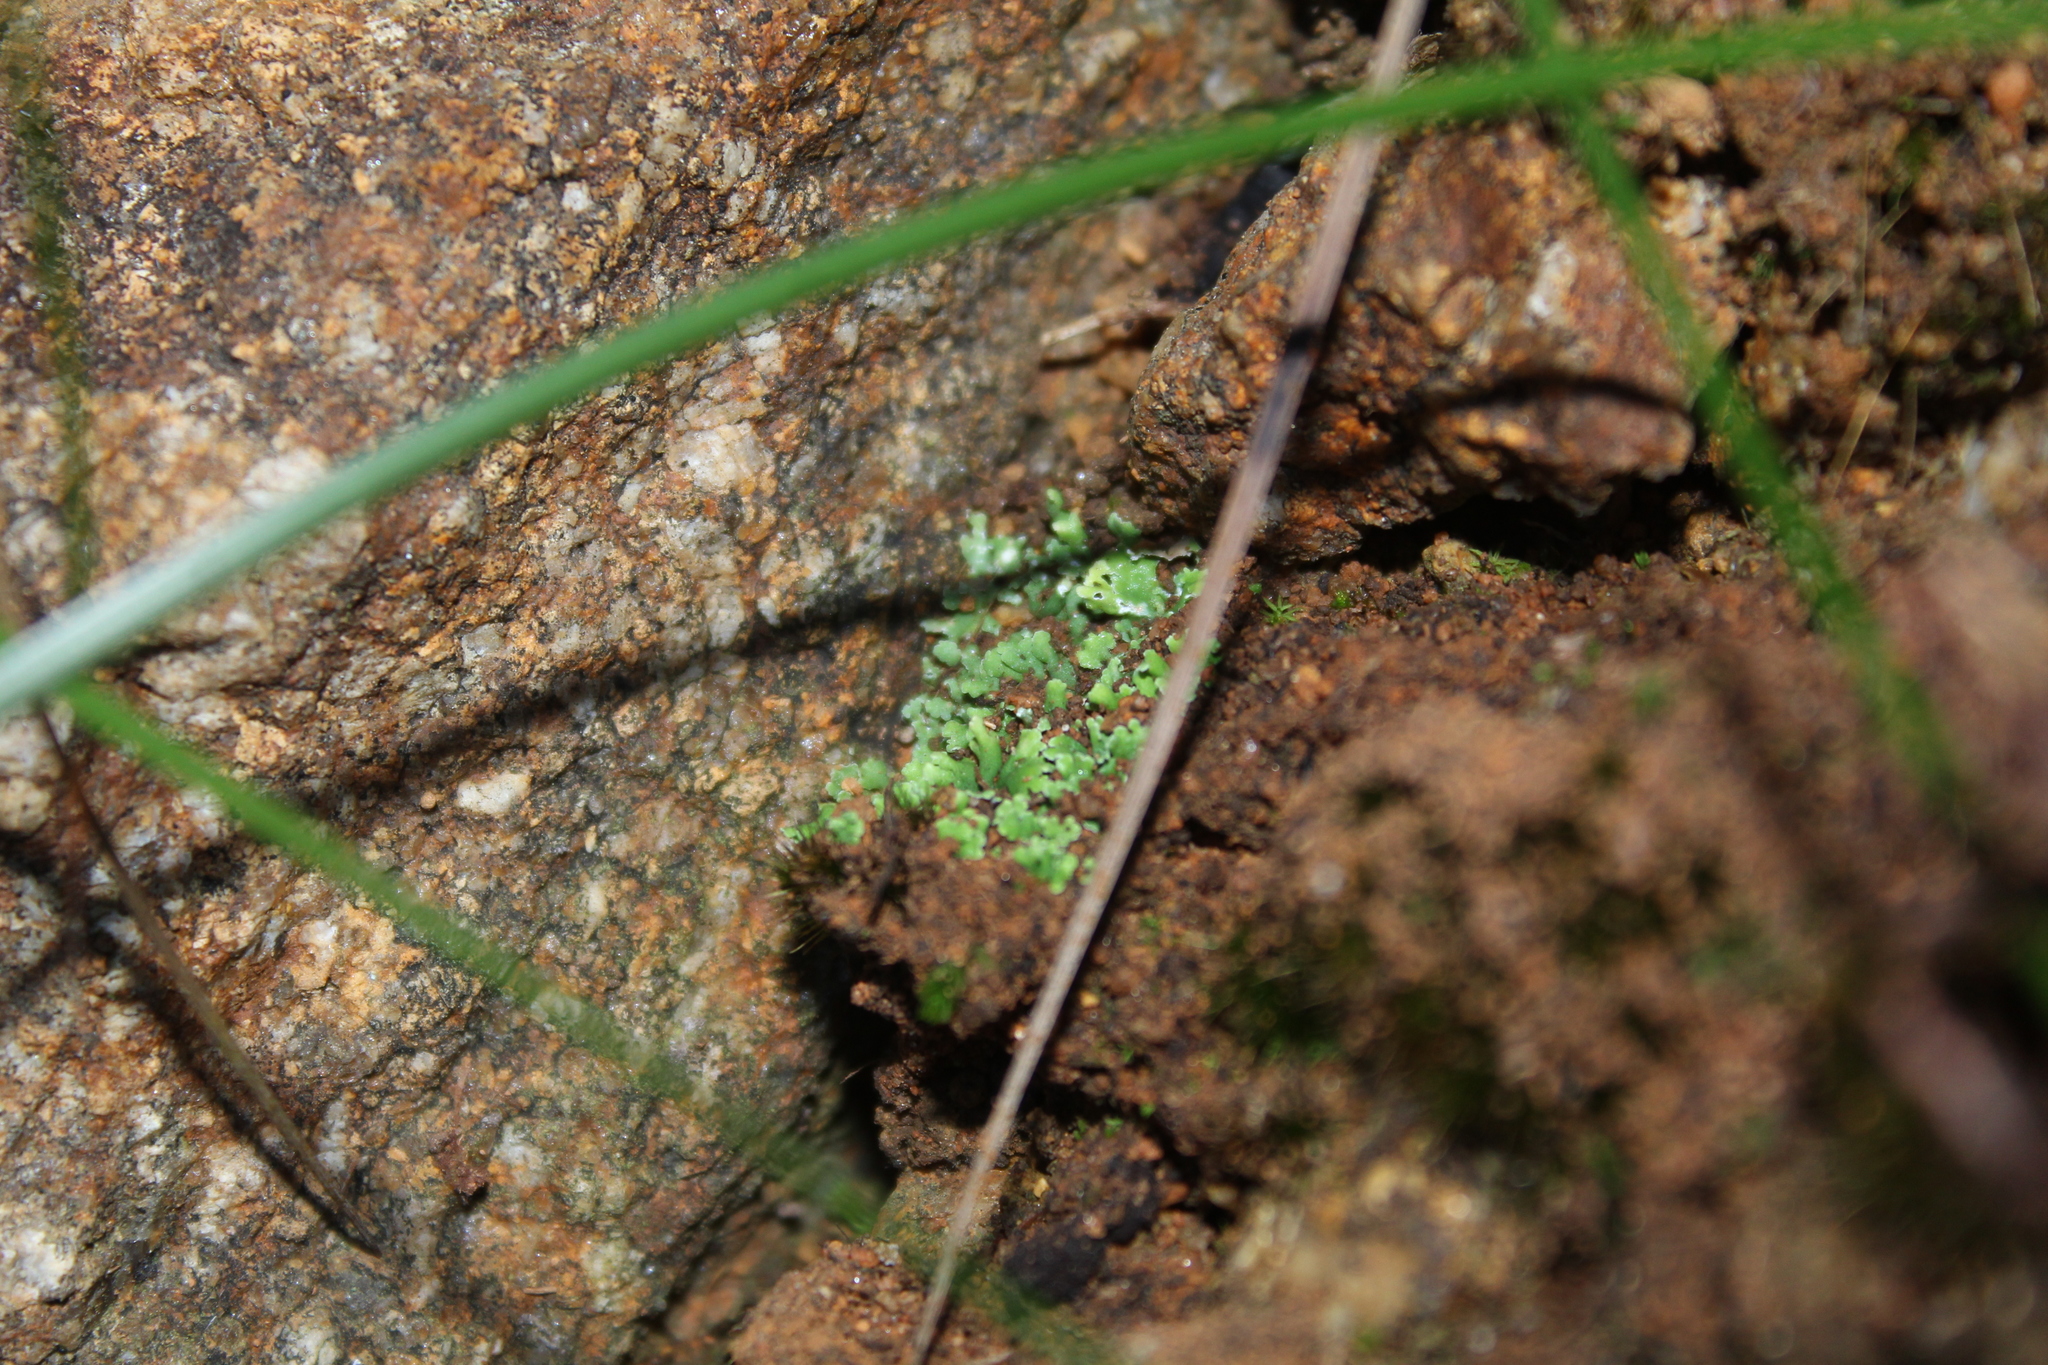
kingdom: Fungi
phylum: Ascomycota
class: Lecanoromycetes
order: Lecanorales
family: Cladoniaceae
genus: Cladia
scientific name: Cladia muelleri
